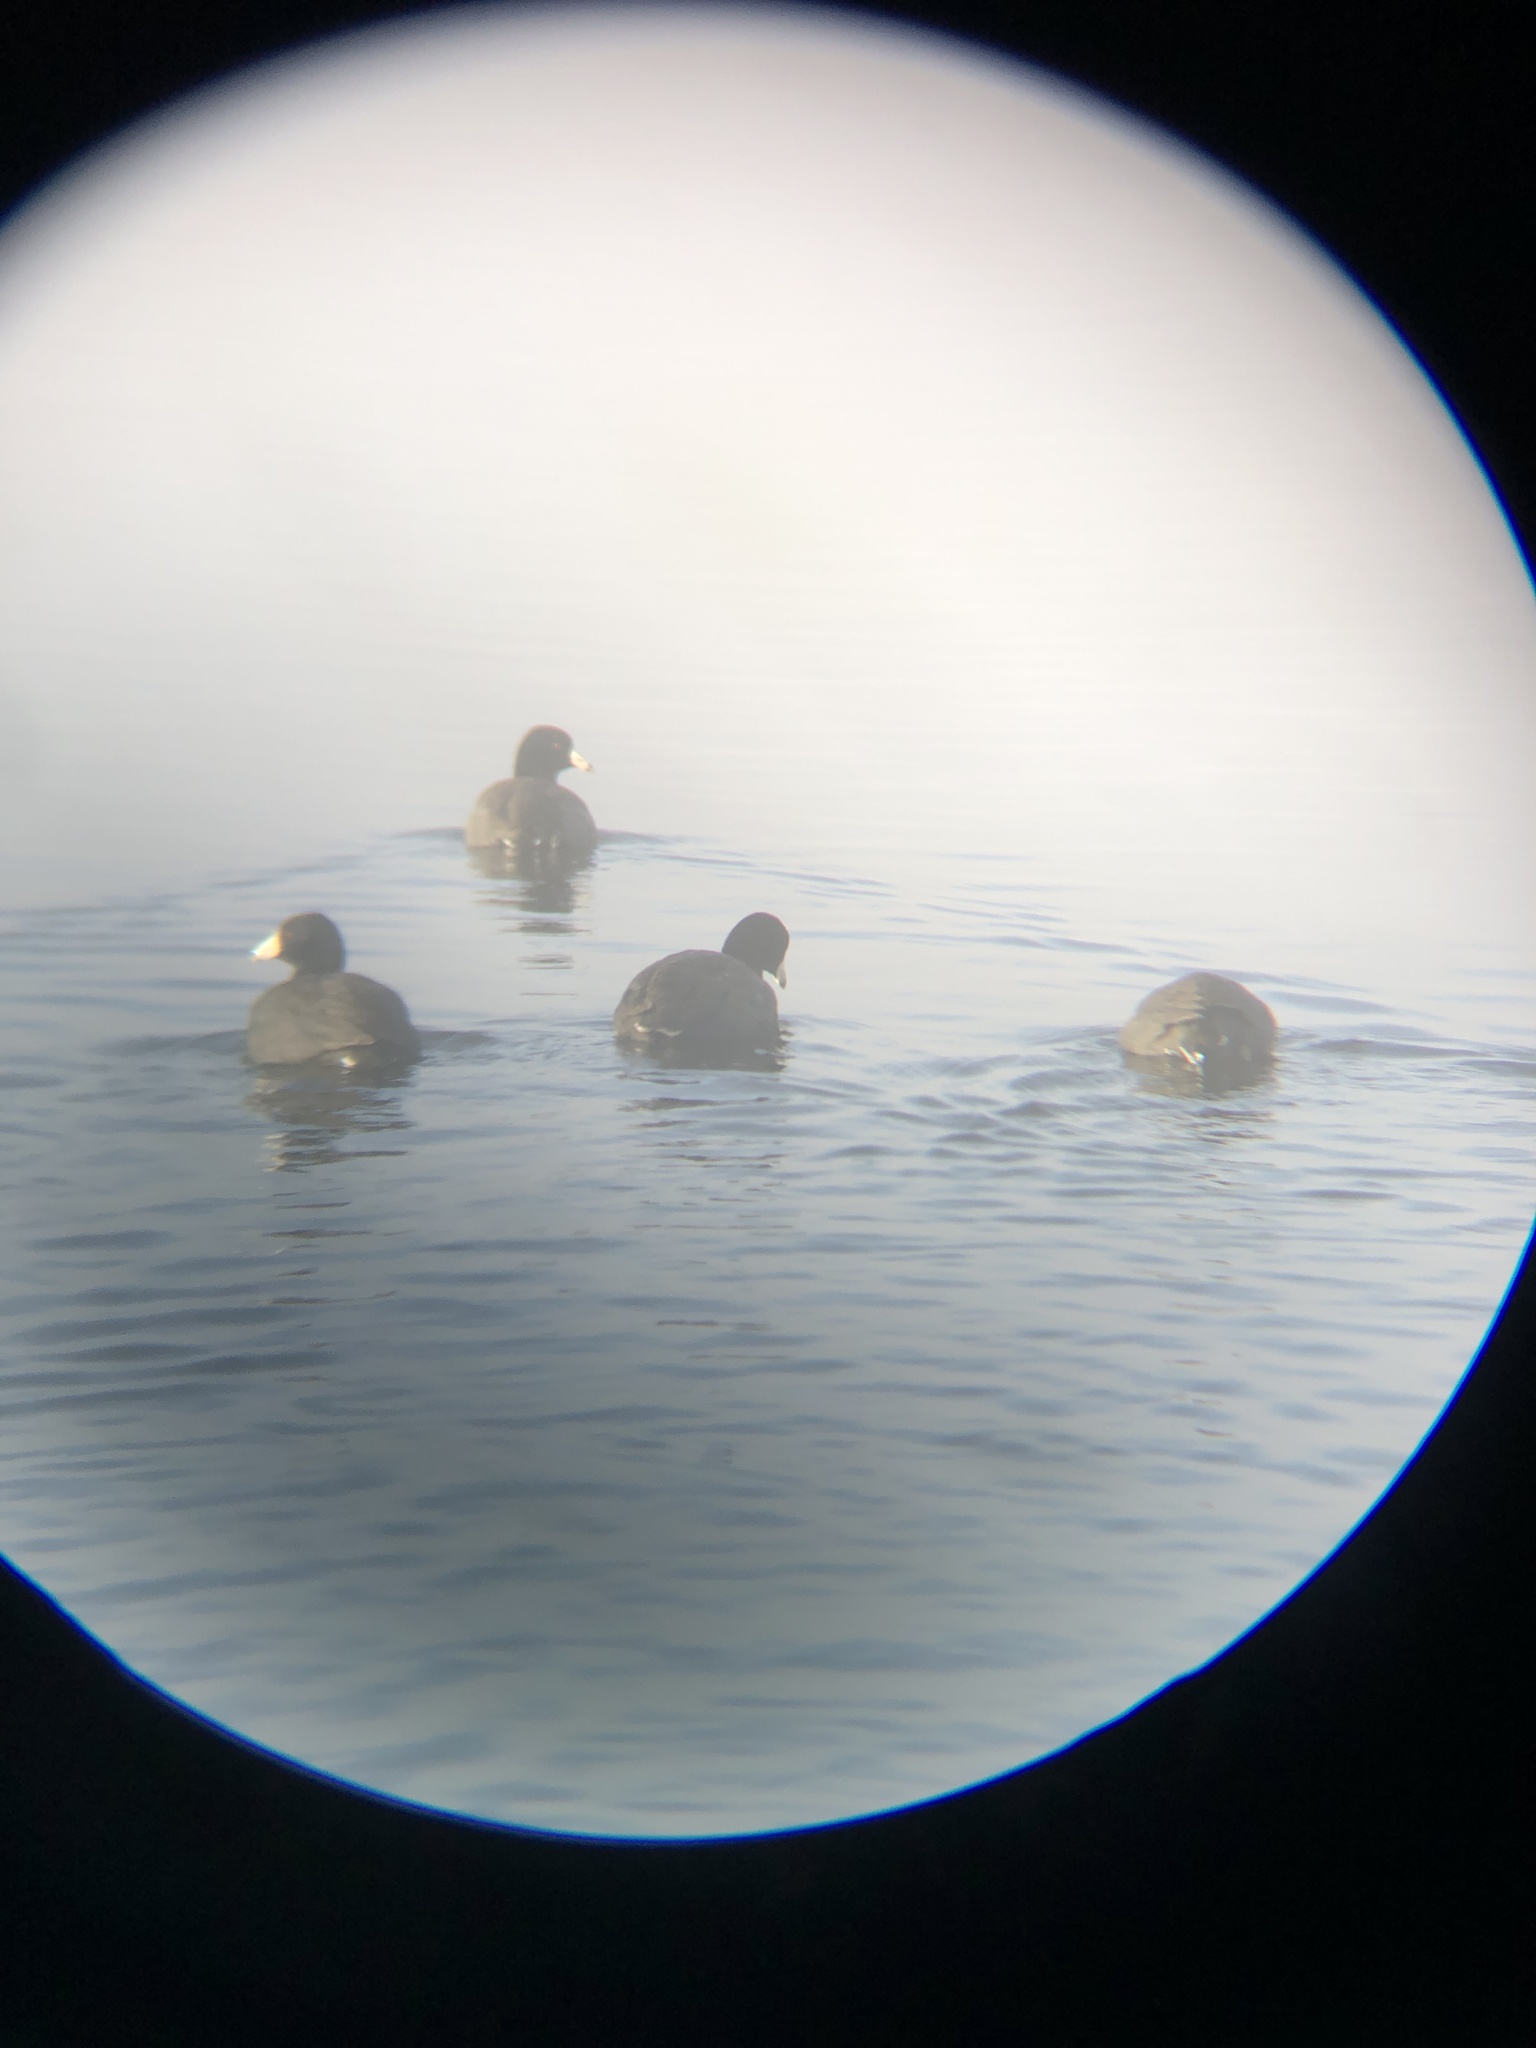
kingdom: Animalia
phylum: Chordata
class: Aves
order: Gruiformes
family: Rallidae
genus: Fulica
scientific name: Fulica americana
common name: American coot
